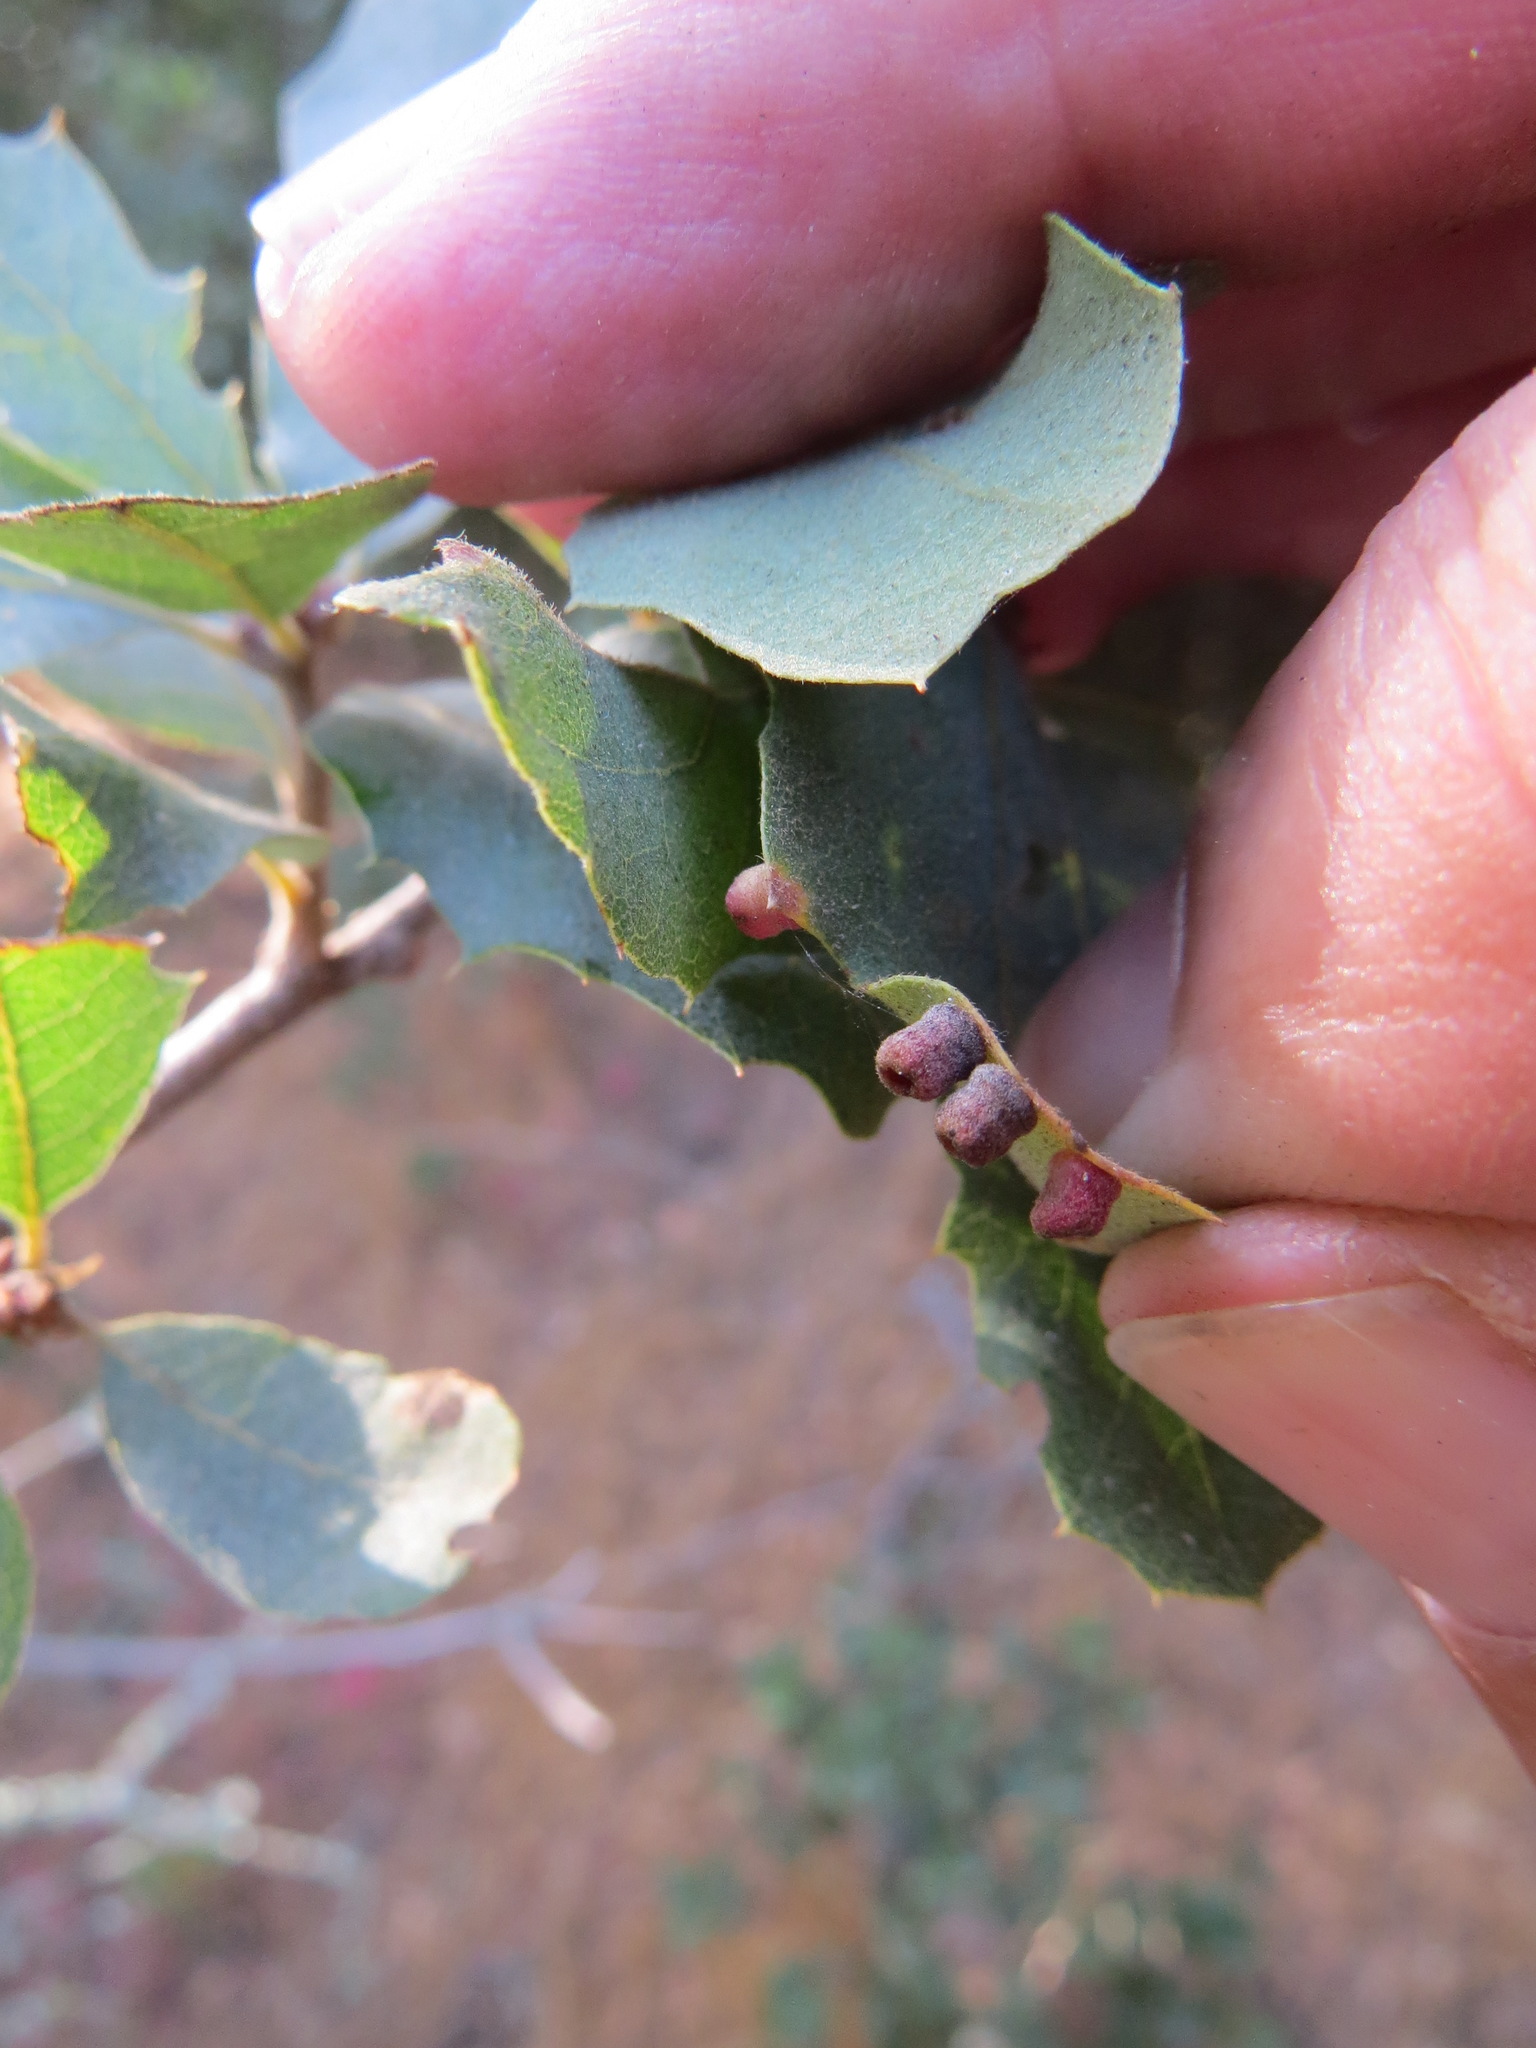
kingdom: Animalia
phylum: Arthropoda
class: Insecta
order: Hymenoptera
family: Cynipidae
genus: Phylloteras
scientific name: Phylloteras
